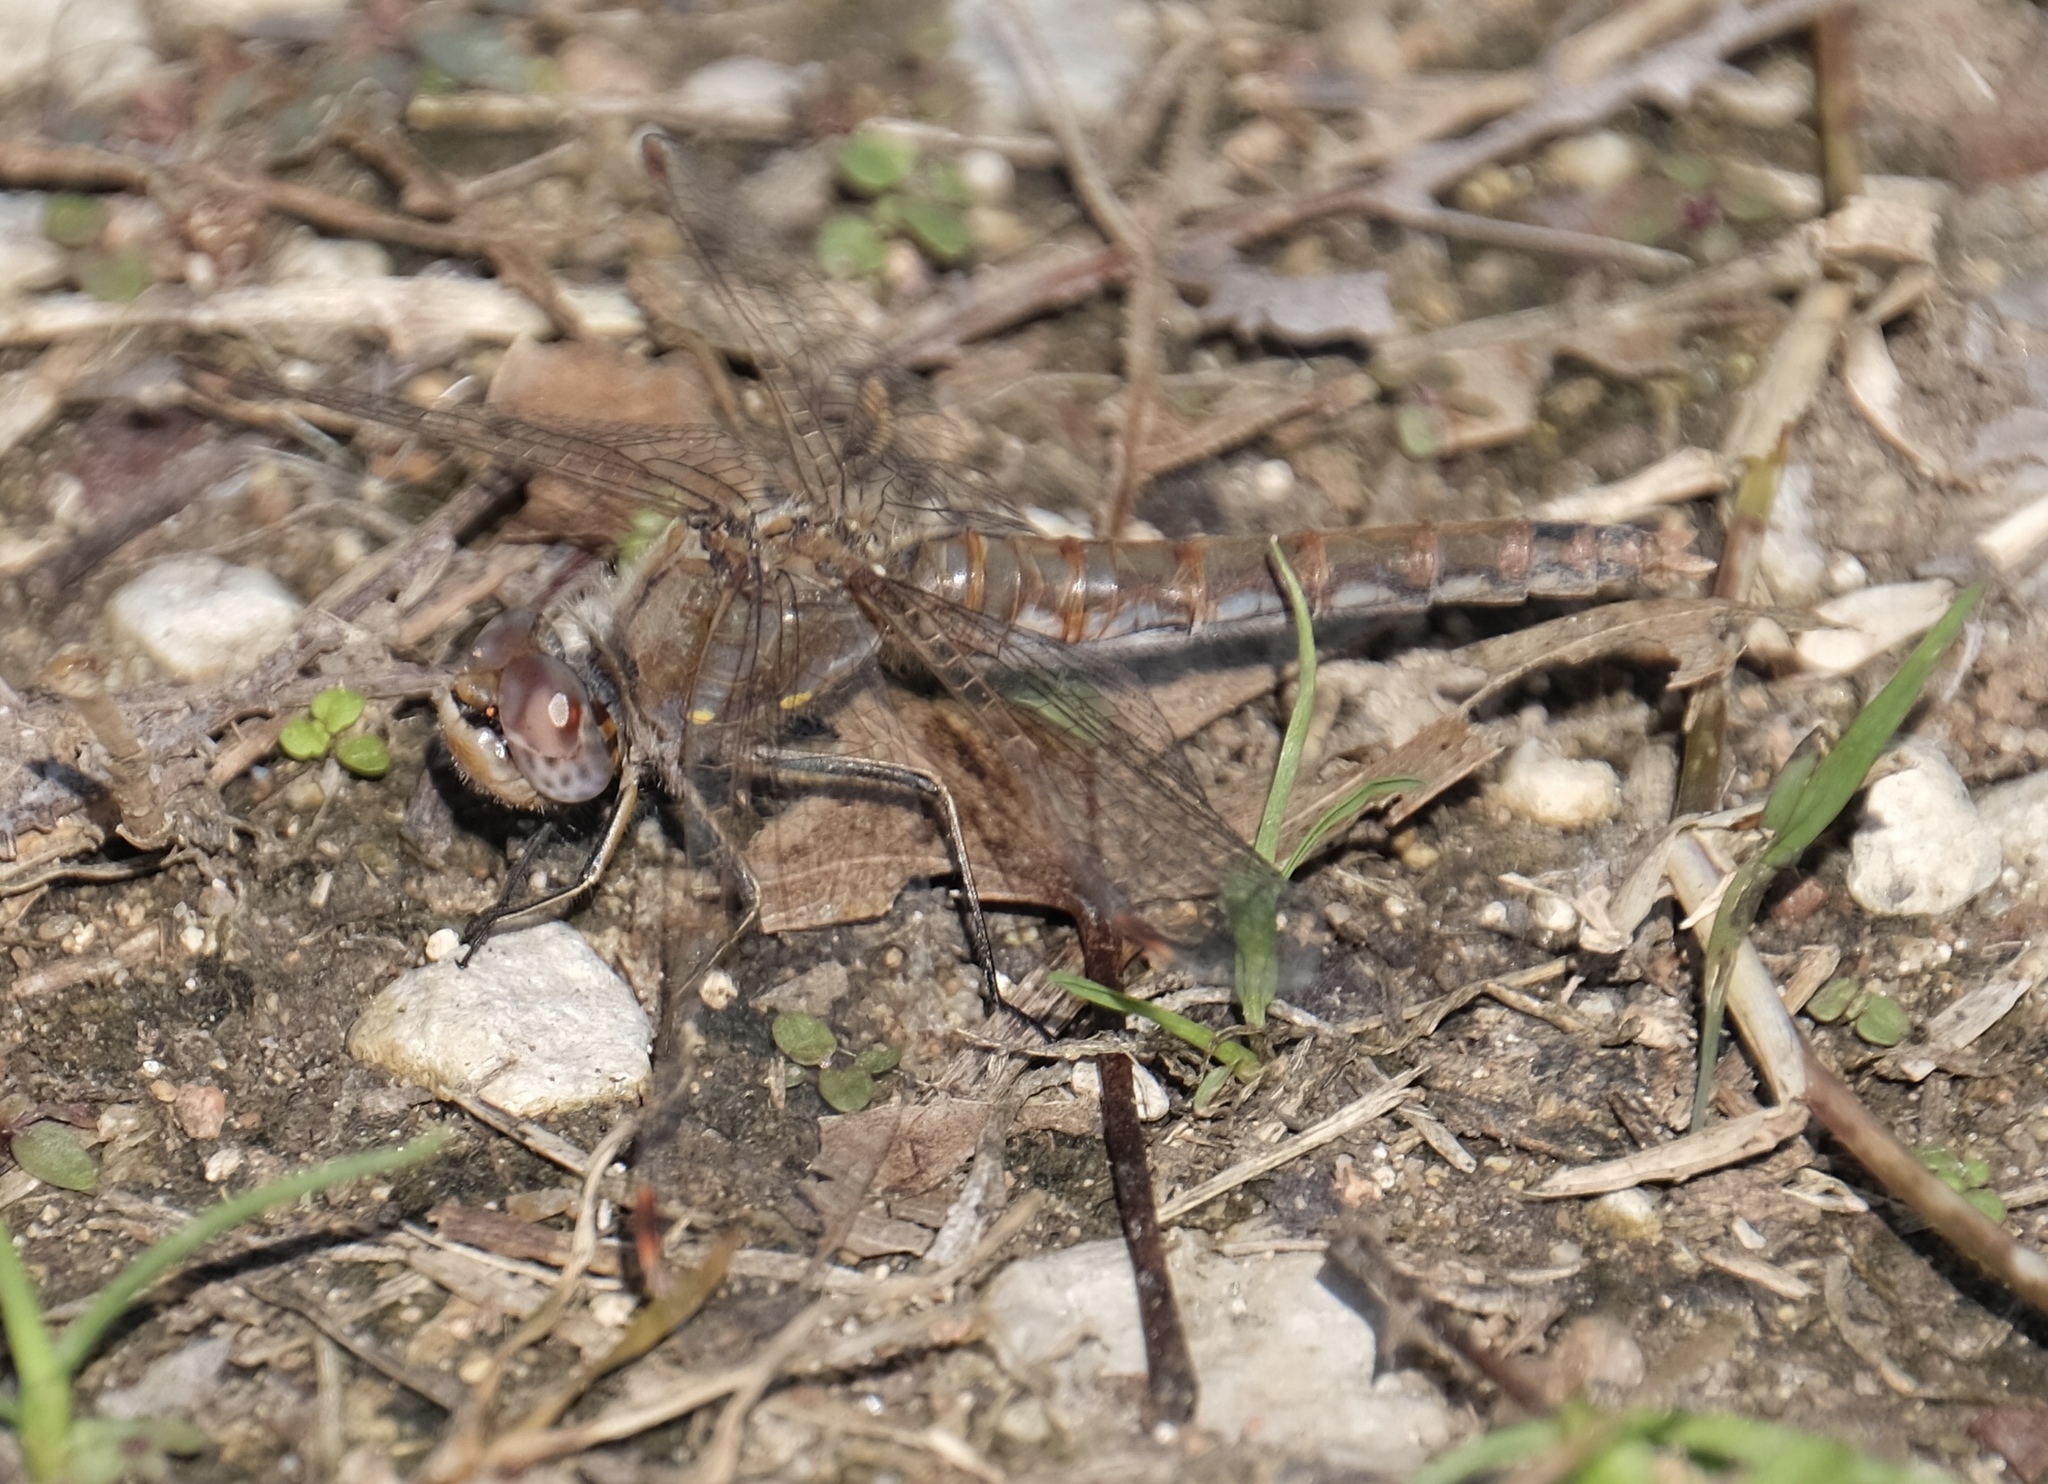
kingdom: Animalia
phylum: Arthropoda
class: Insecta
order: Odonata
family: Libellulidae
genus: Sympetrum
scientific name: Sympetrum corruptum
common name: Variegated meadowhawk
